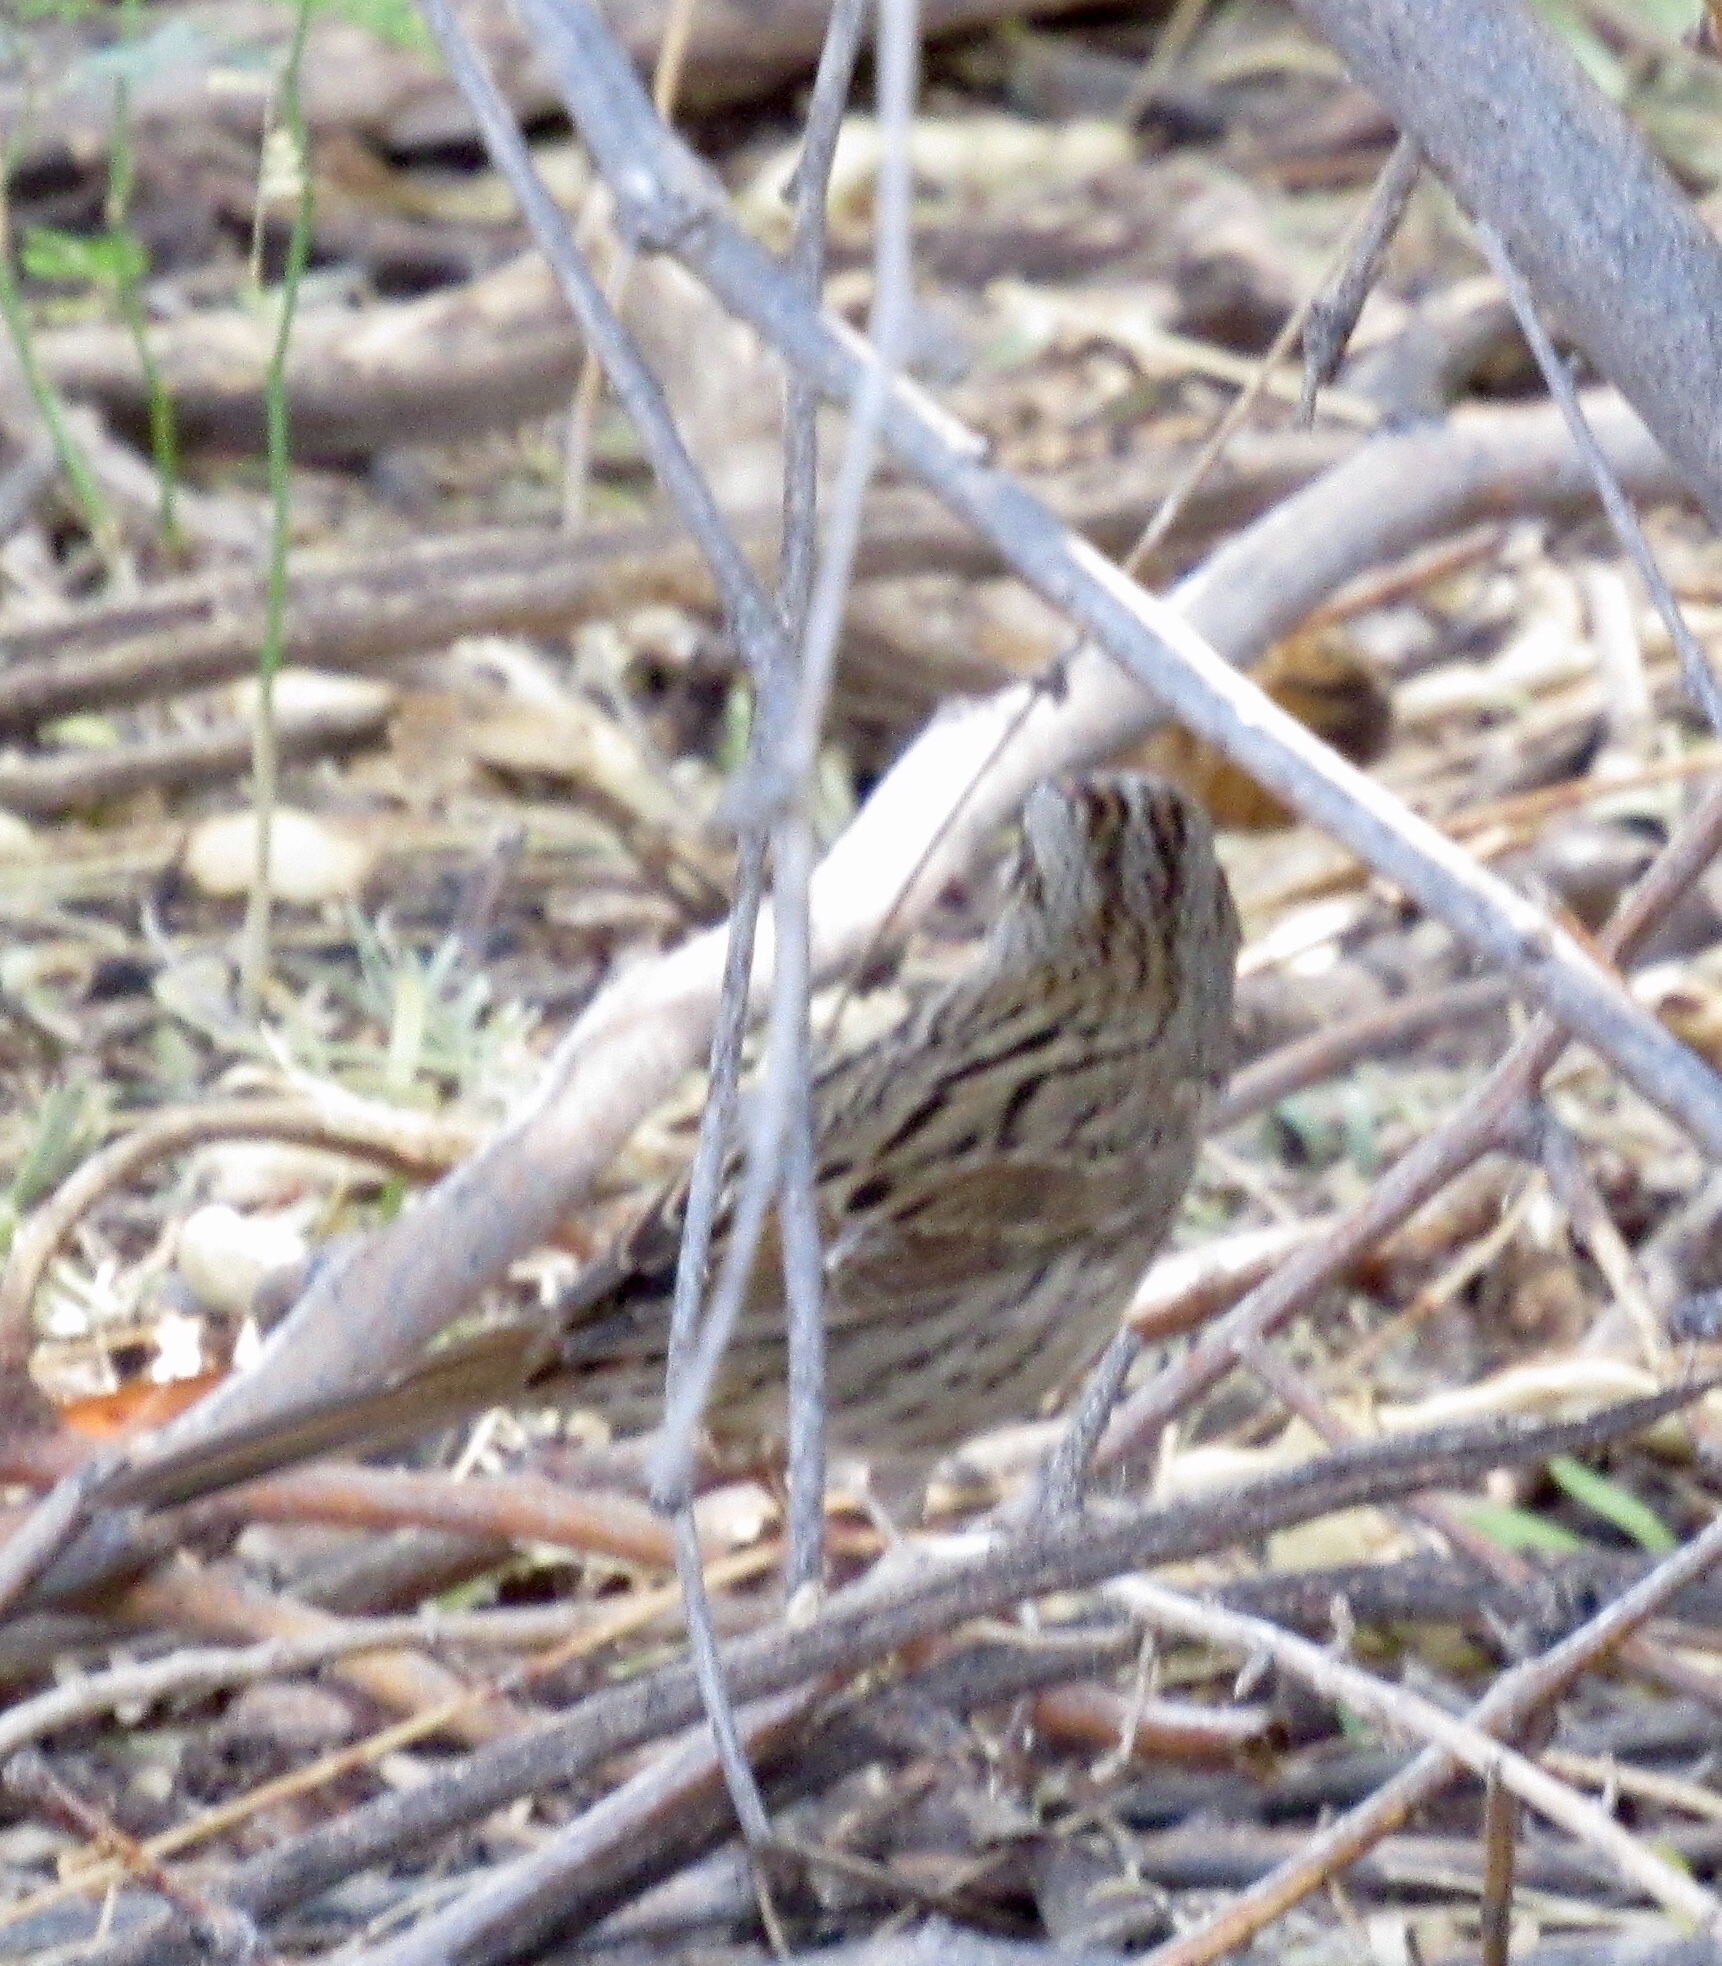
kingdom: Animalia
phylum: Chordata
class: Aves
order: Passeriformes
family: Passerellidae
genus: Melospiza
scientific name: Melospiza lincolnii
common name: Lincoln's sparrow
